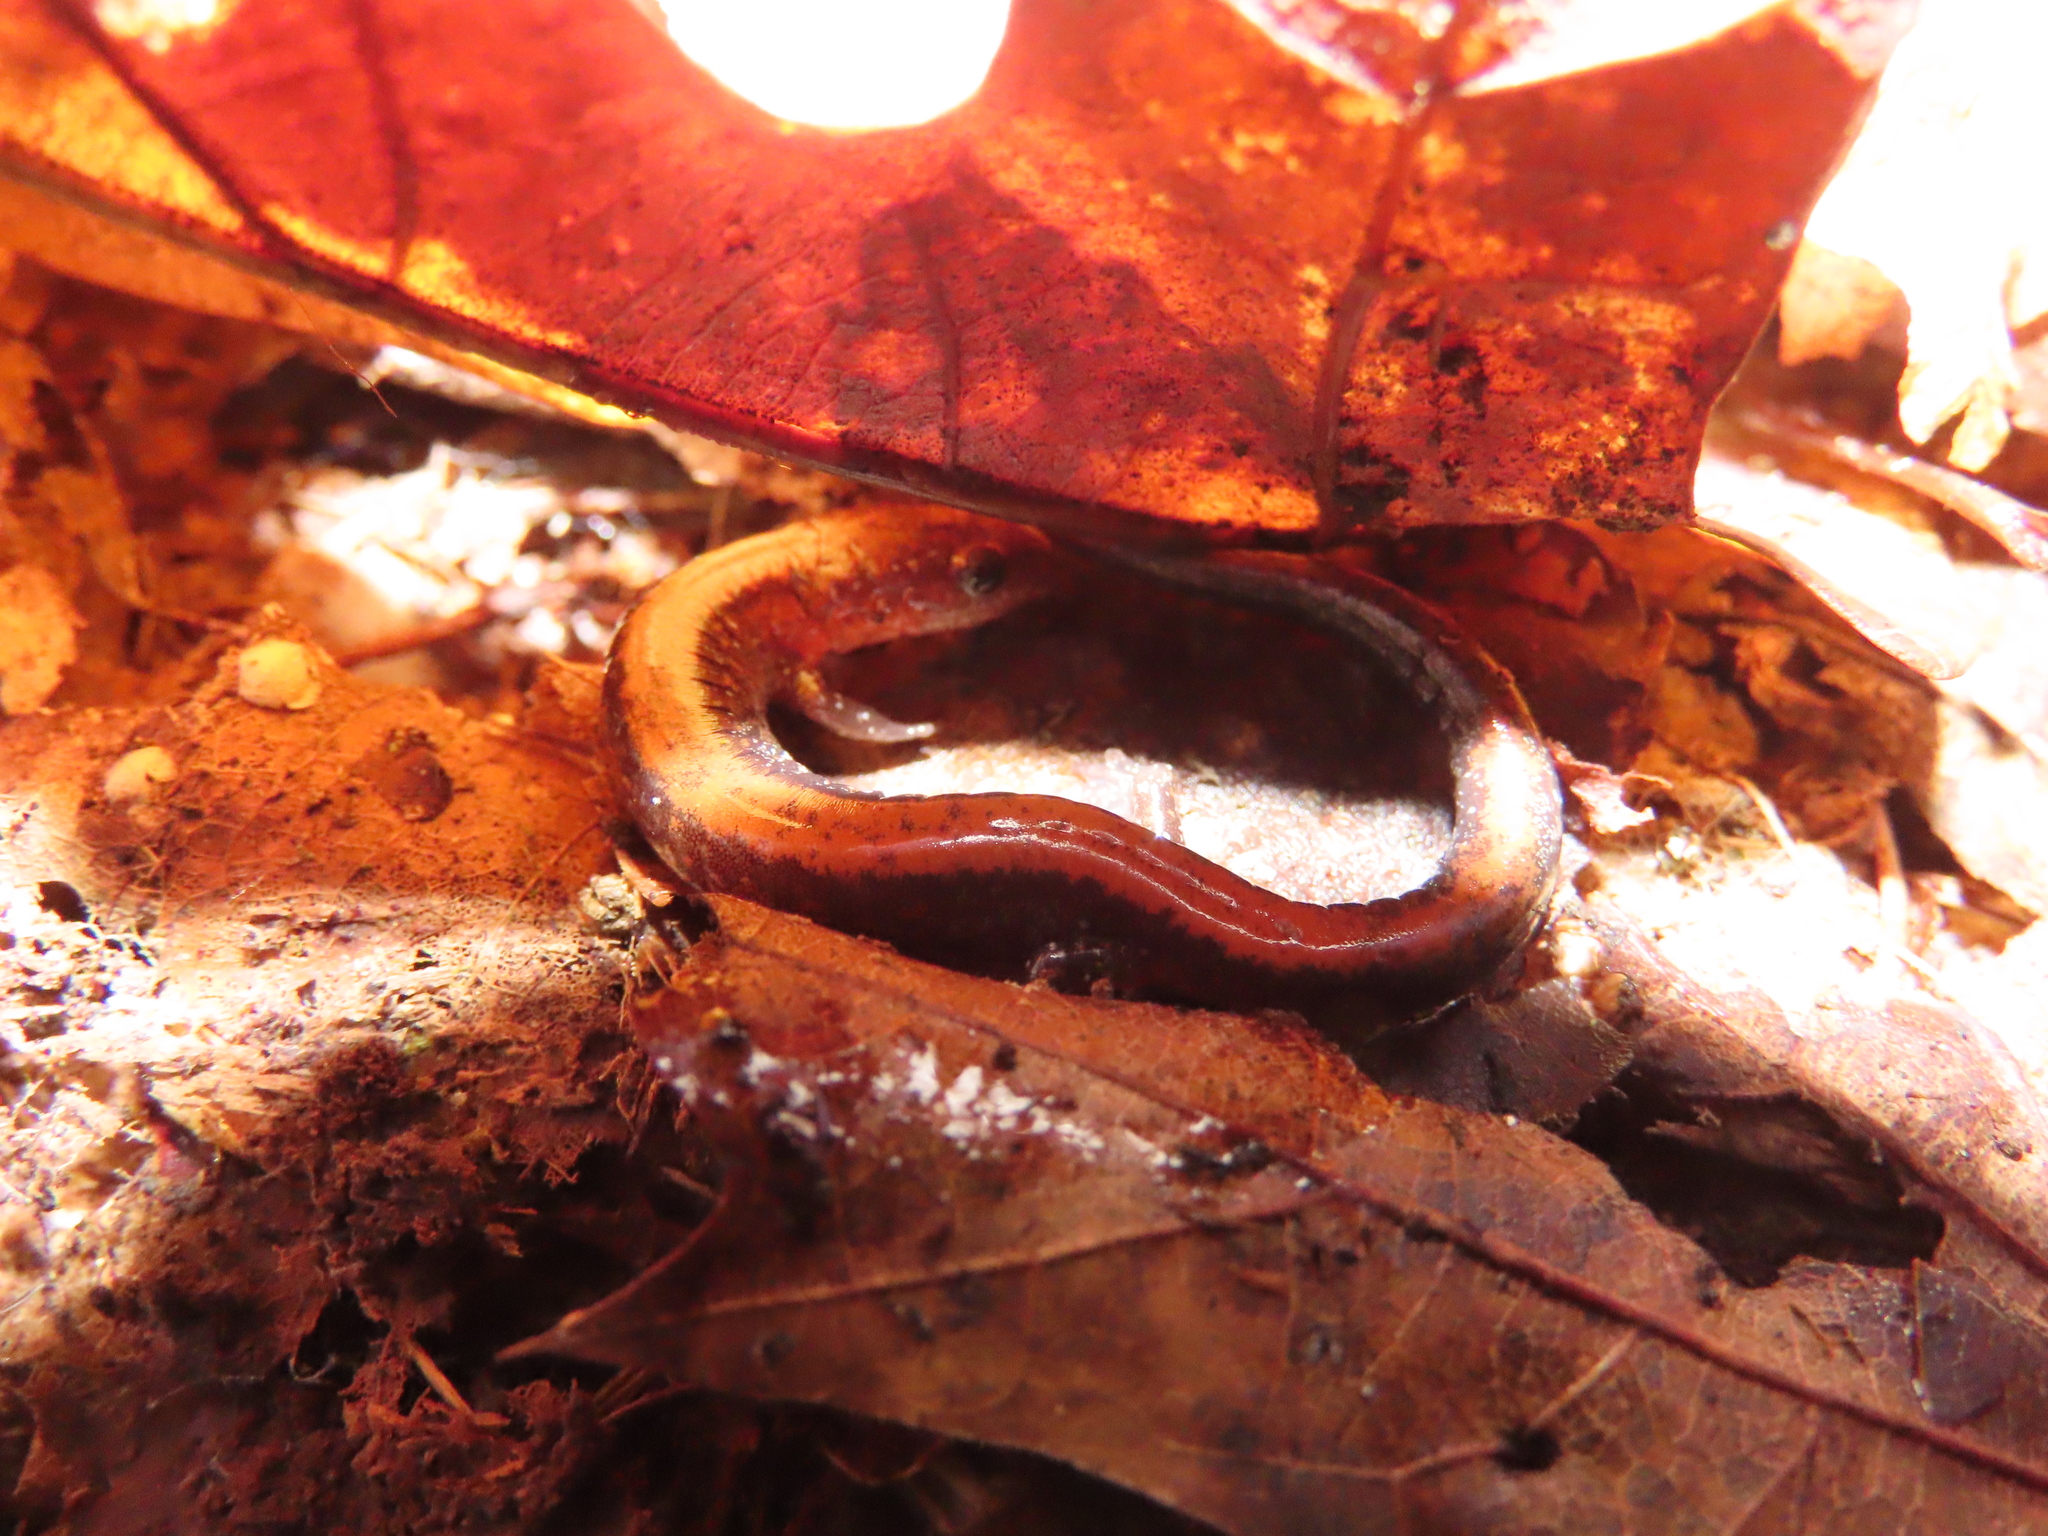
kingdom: Animalia
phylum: Chordata
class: Amphibia
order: Caudata
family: Plethodontidae
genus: Plethodon
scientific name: Plethodon cinereus
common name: Redback salamander
